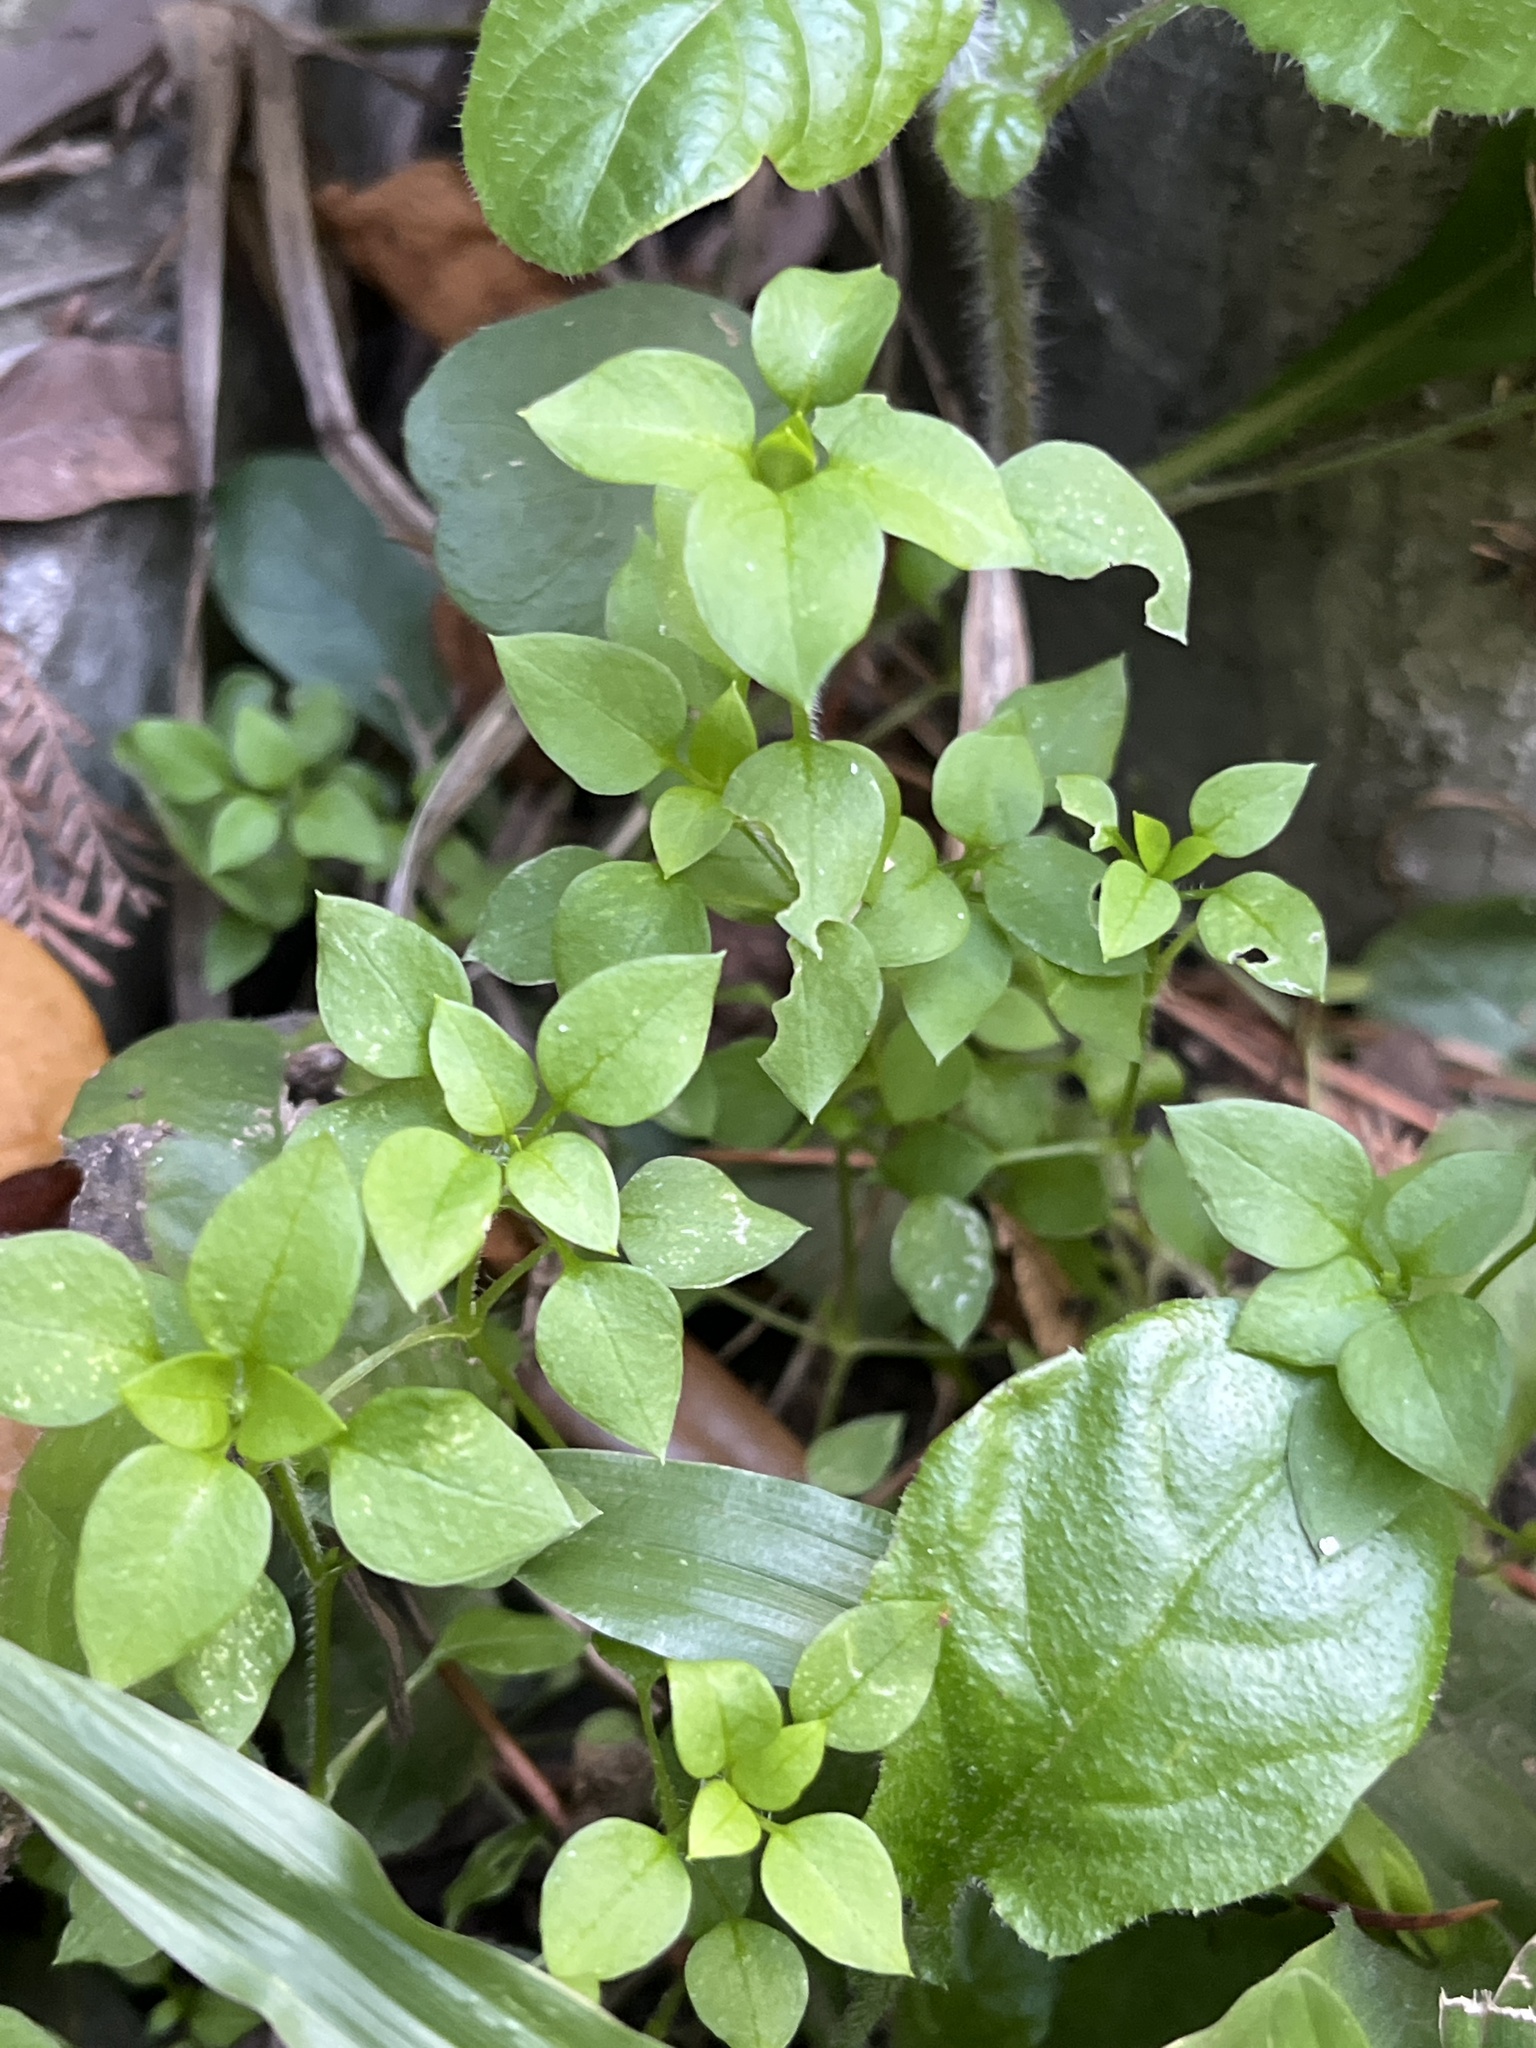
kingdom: Plantae
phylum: Tracheophyta
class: Magnoliopsida
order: Caryophyllales
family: Caryophyllaceae
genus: Stellaria
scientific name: Stellaria media
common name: Common chickweed
